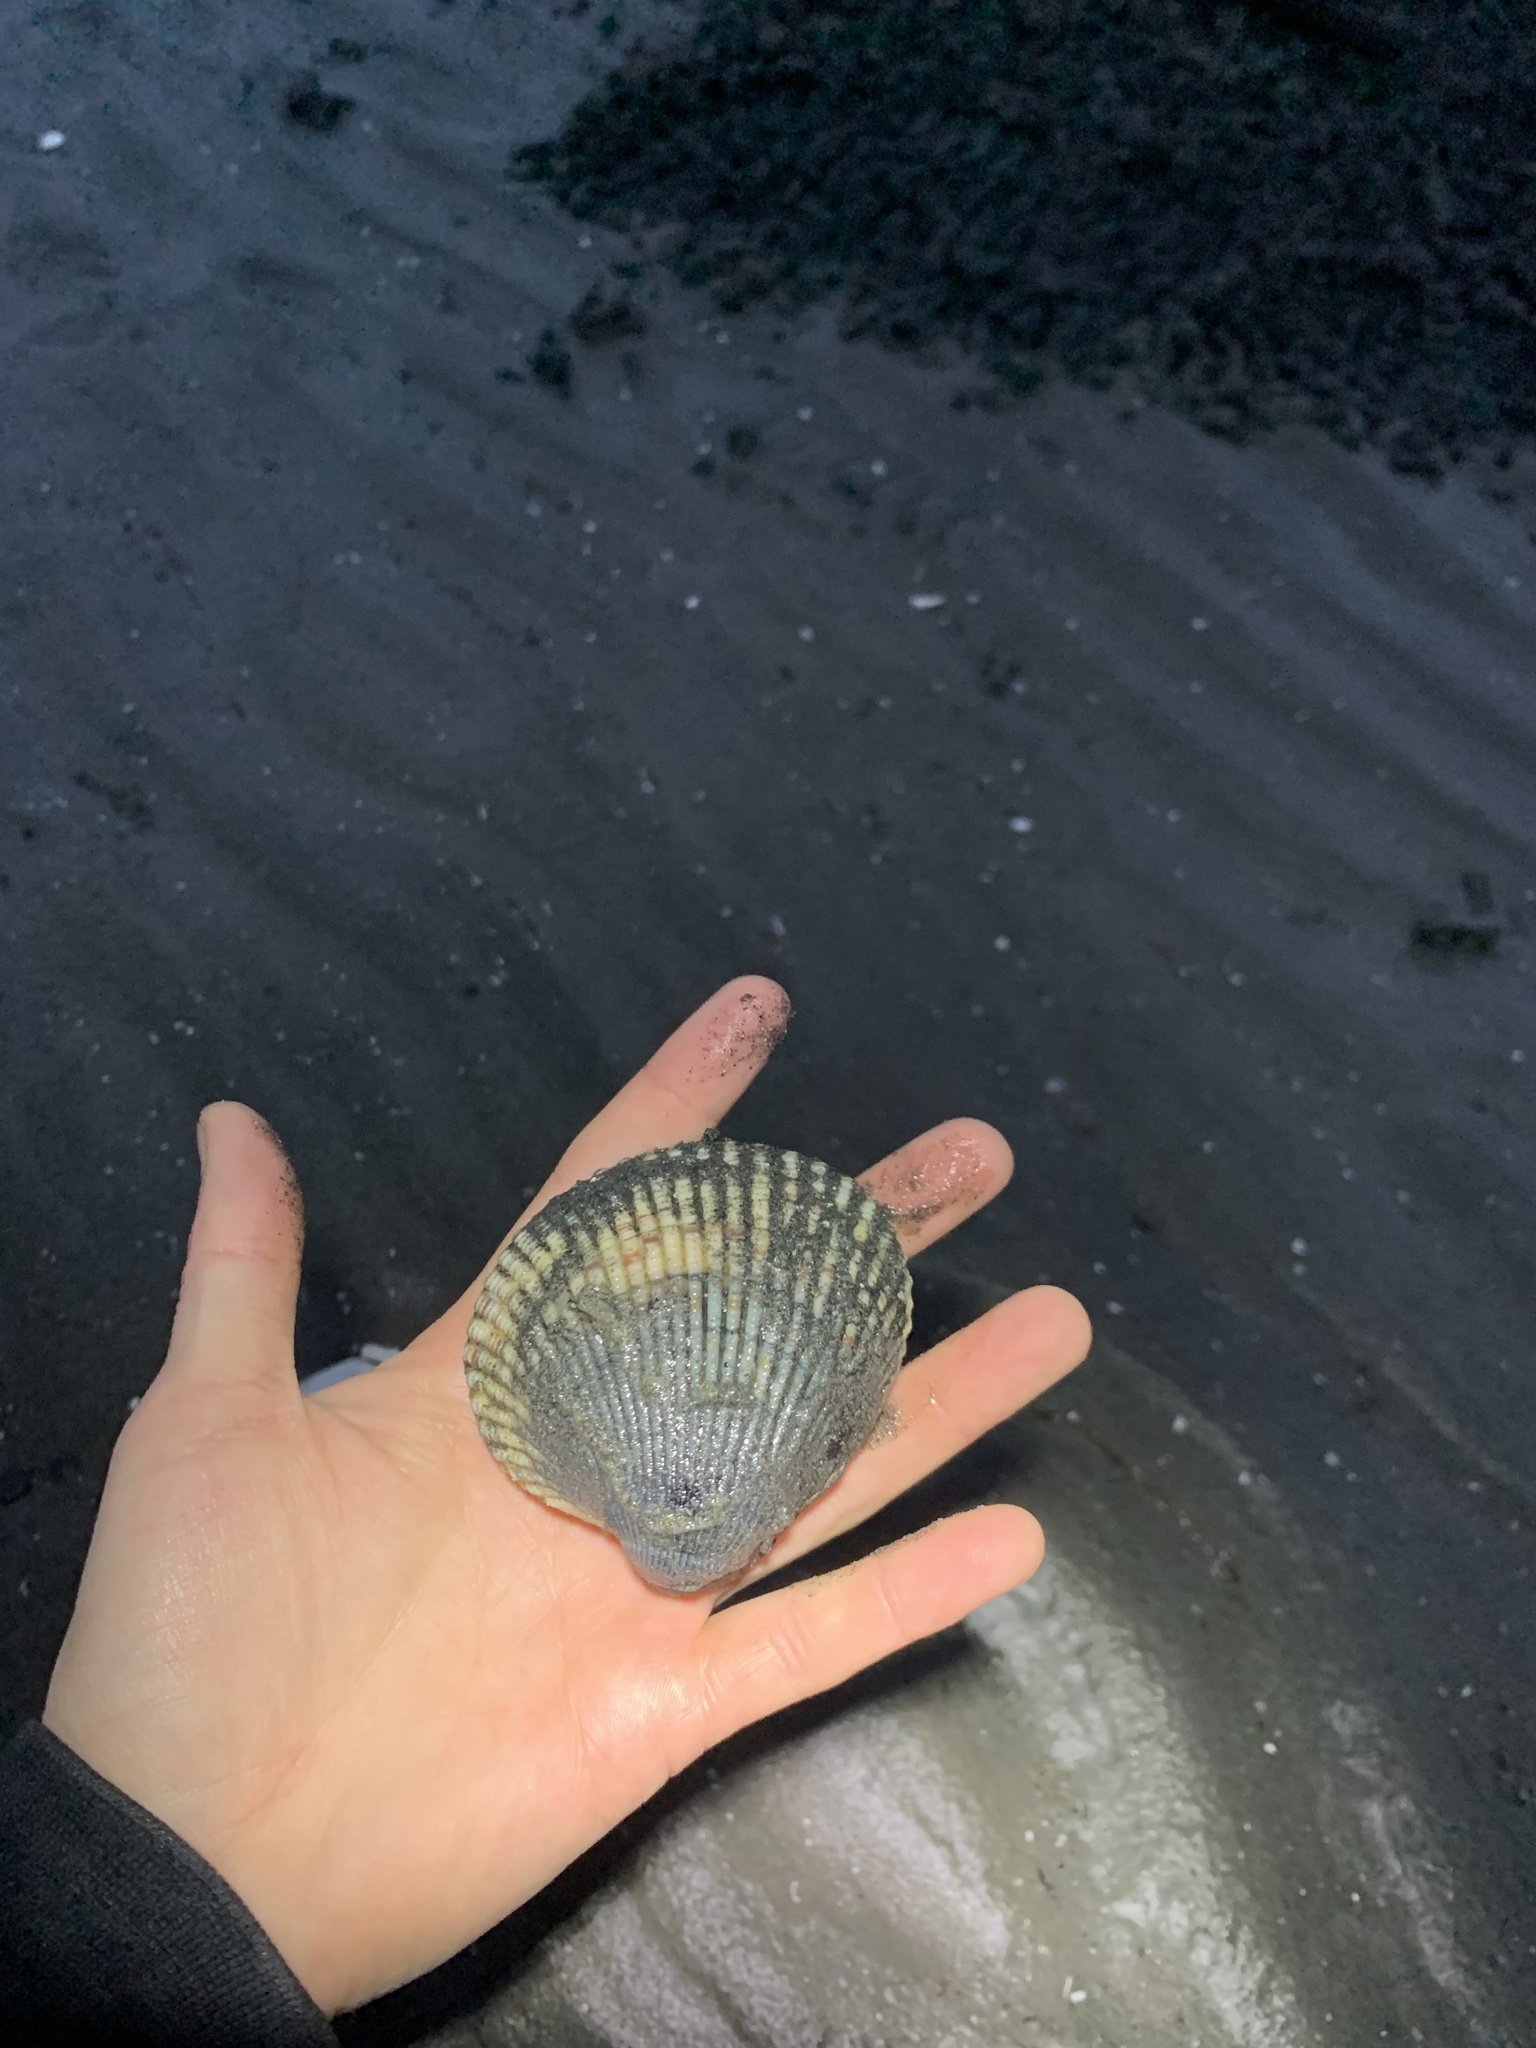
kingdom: Animalia
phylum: Mollusca
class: Bivalvia
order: Cardiida
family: Cardiidae
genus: Clinocardium
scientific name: Clinocardium nuttallii
